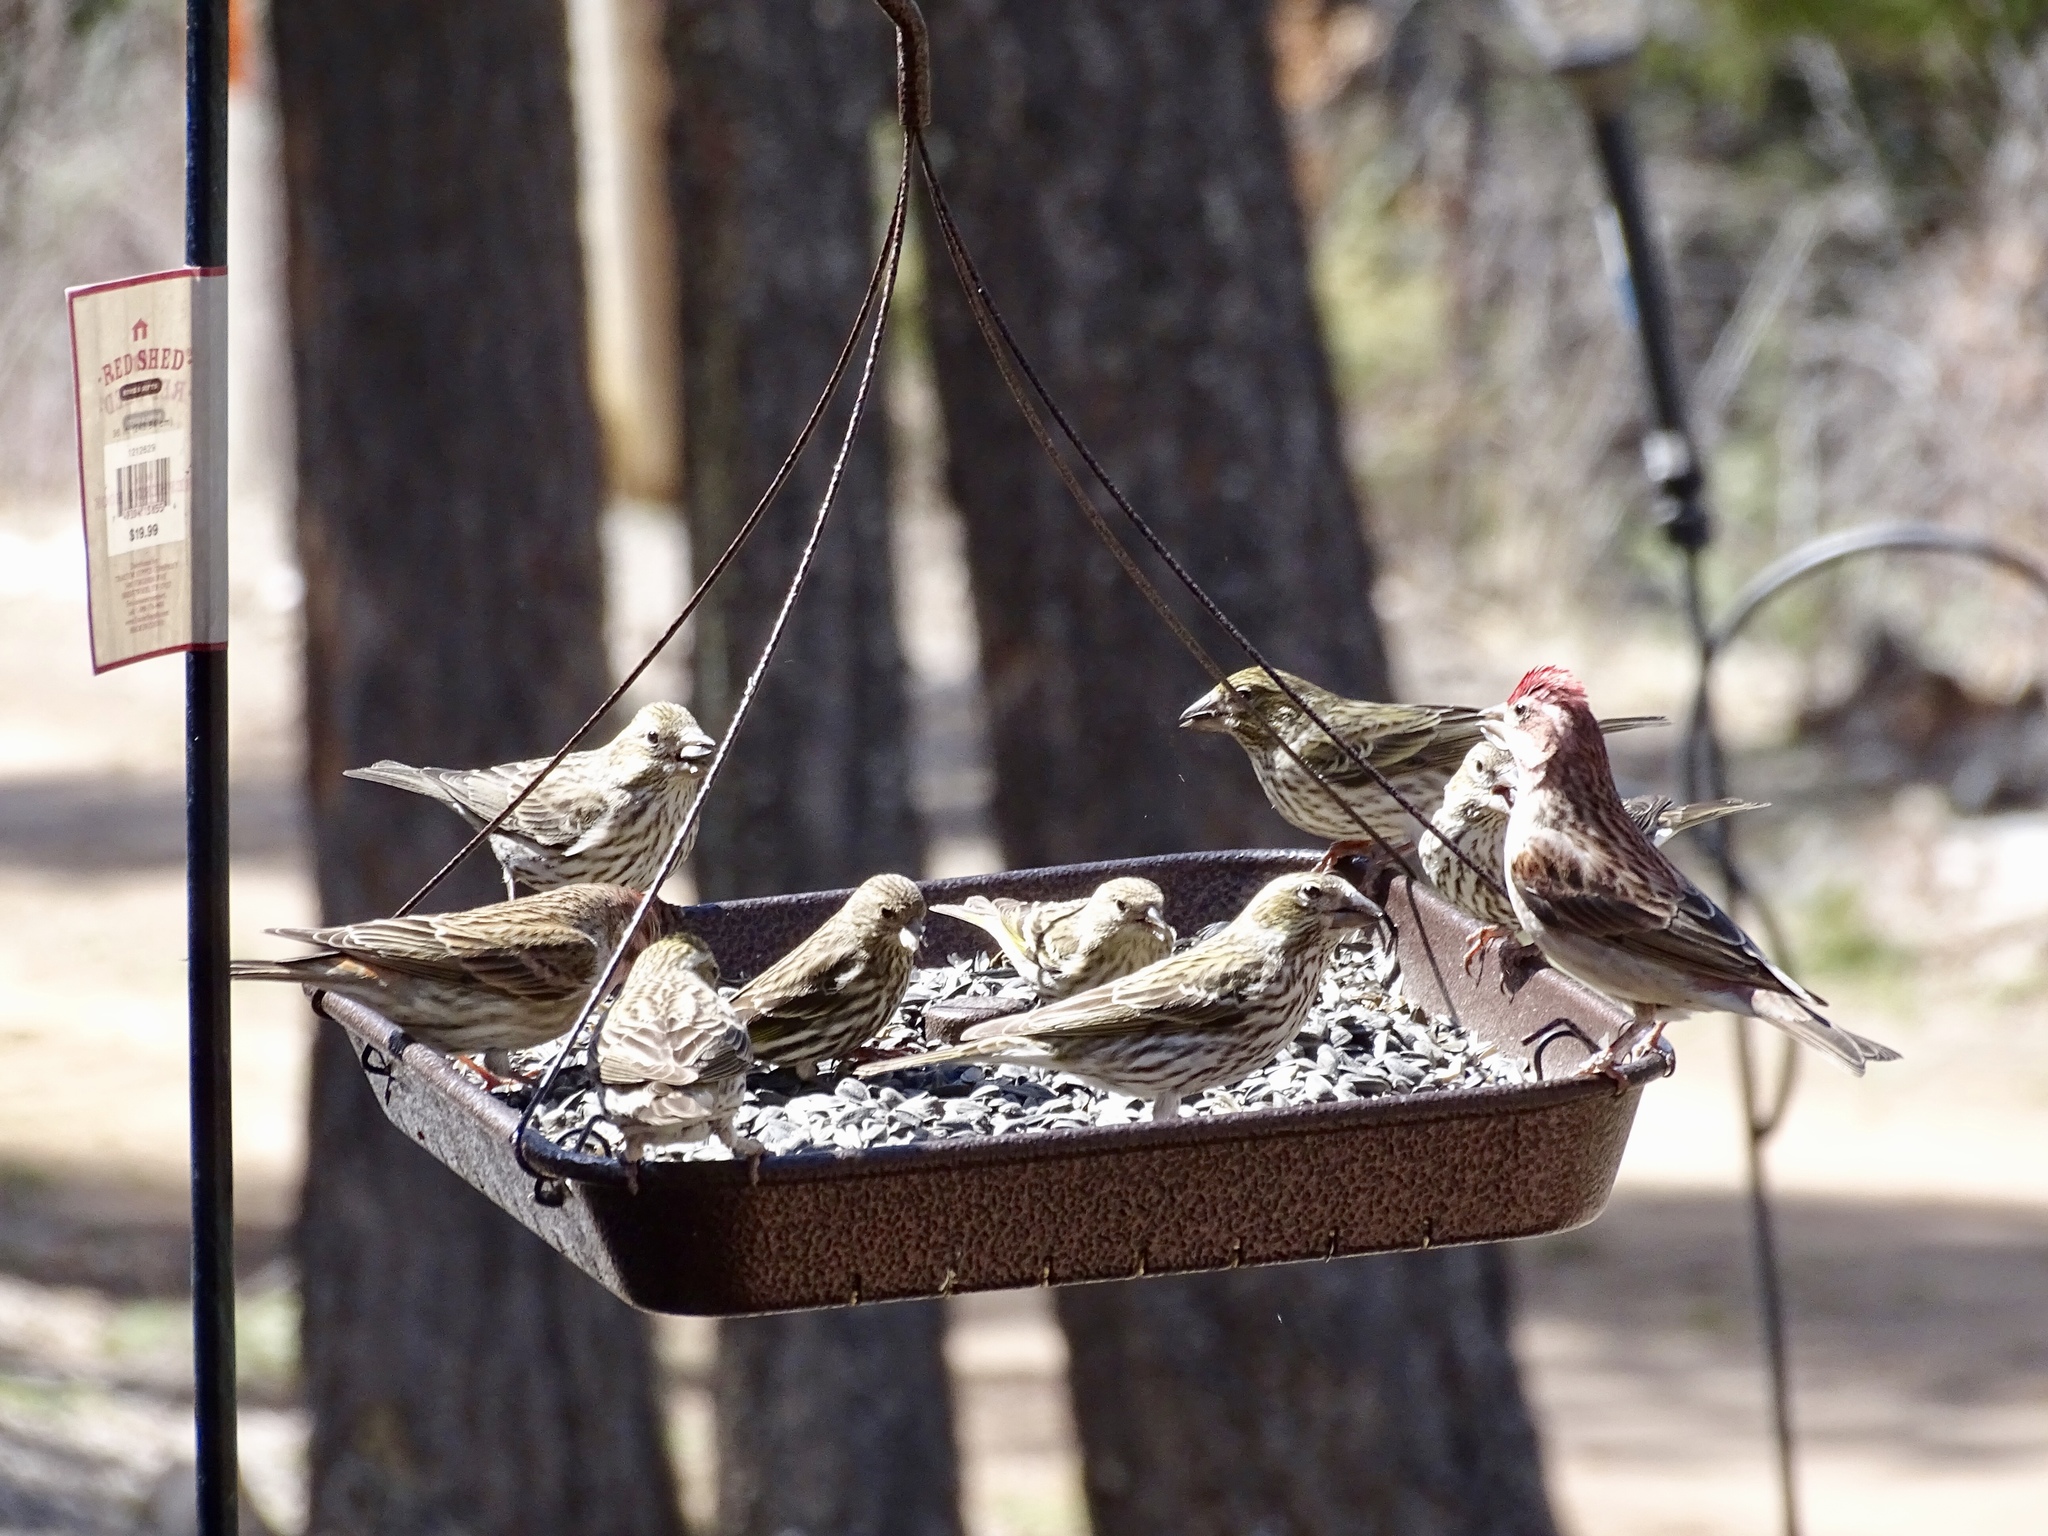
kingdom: Animalia
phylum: Chordata
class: Aves
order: Passeriformes
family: Fringillidae
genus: Haemorhous
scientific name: Haemorhous cassinii
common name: Cassin's finch
